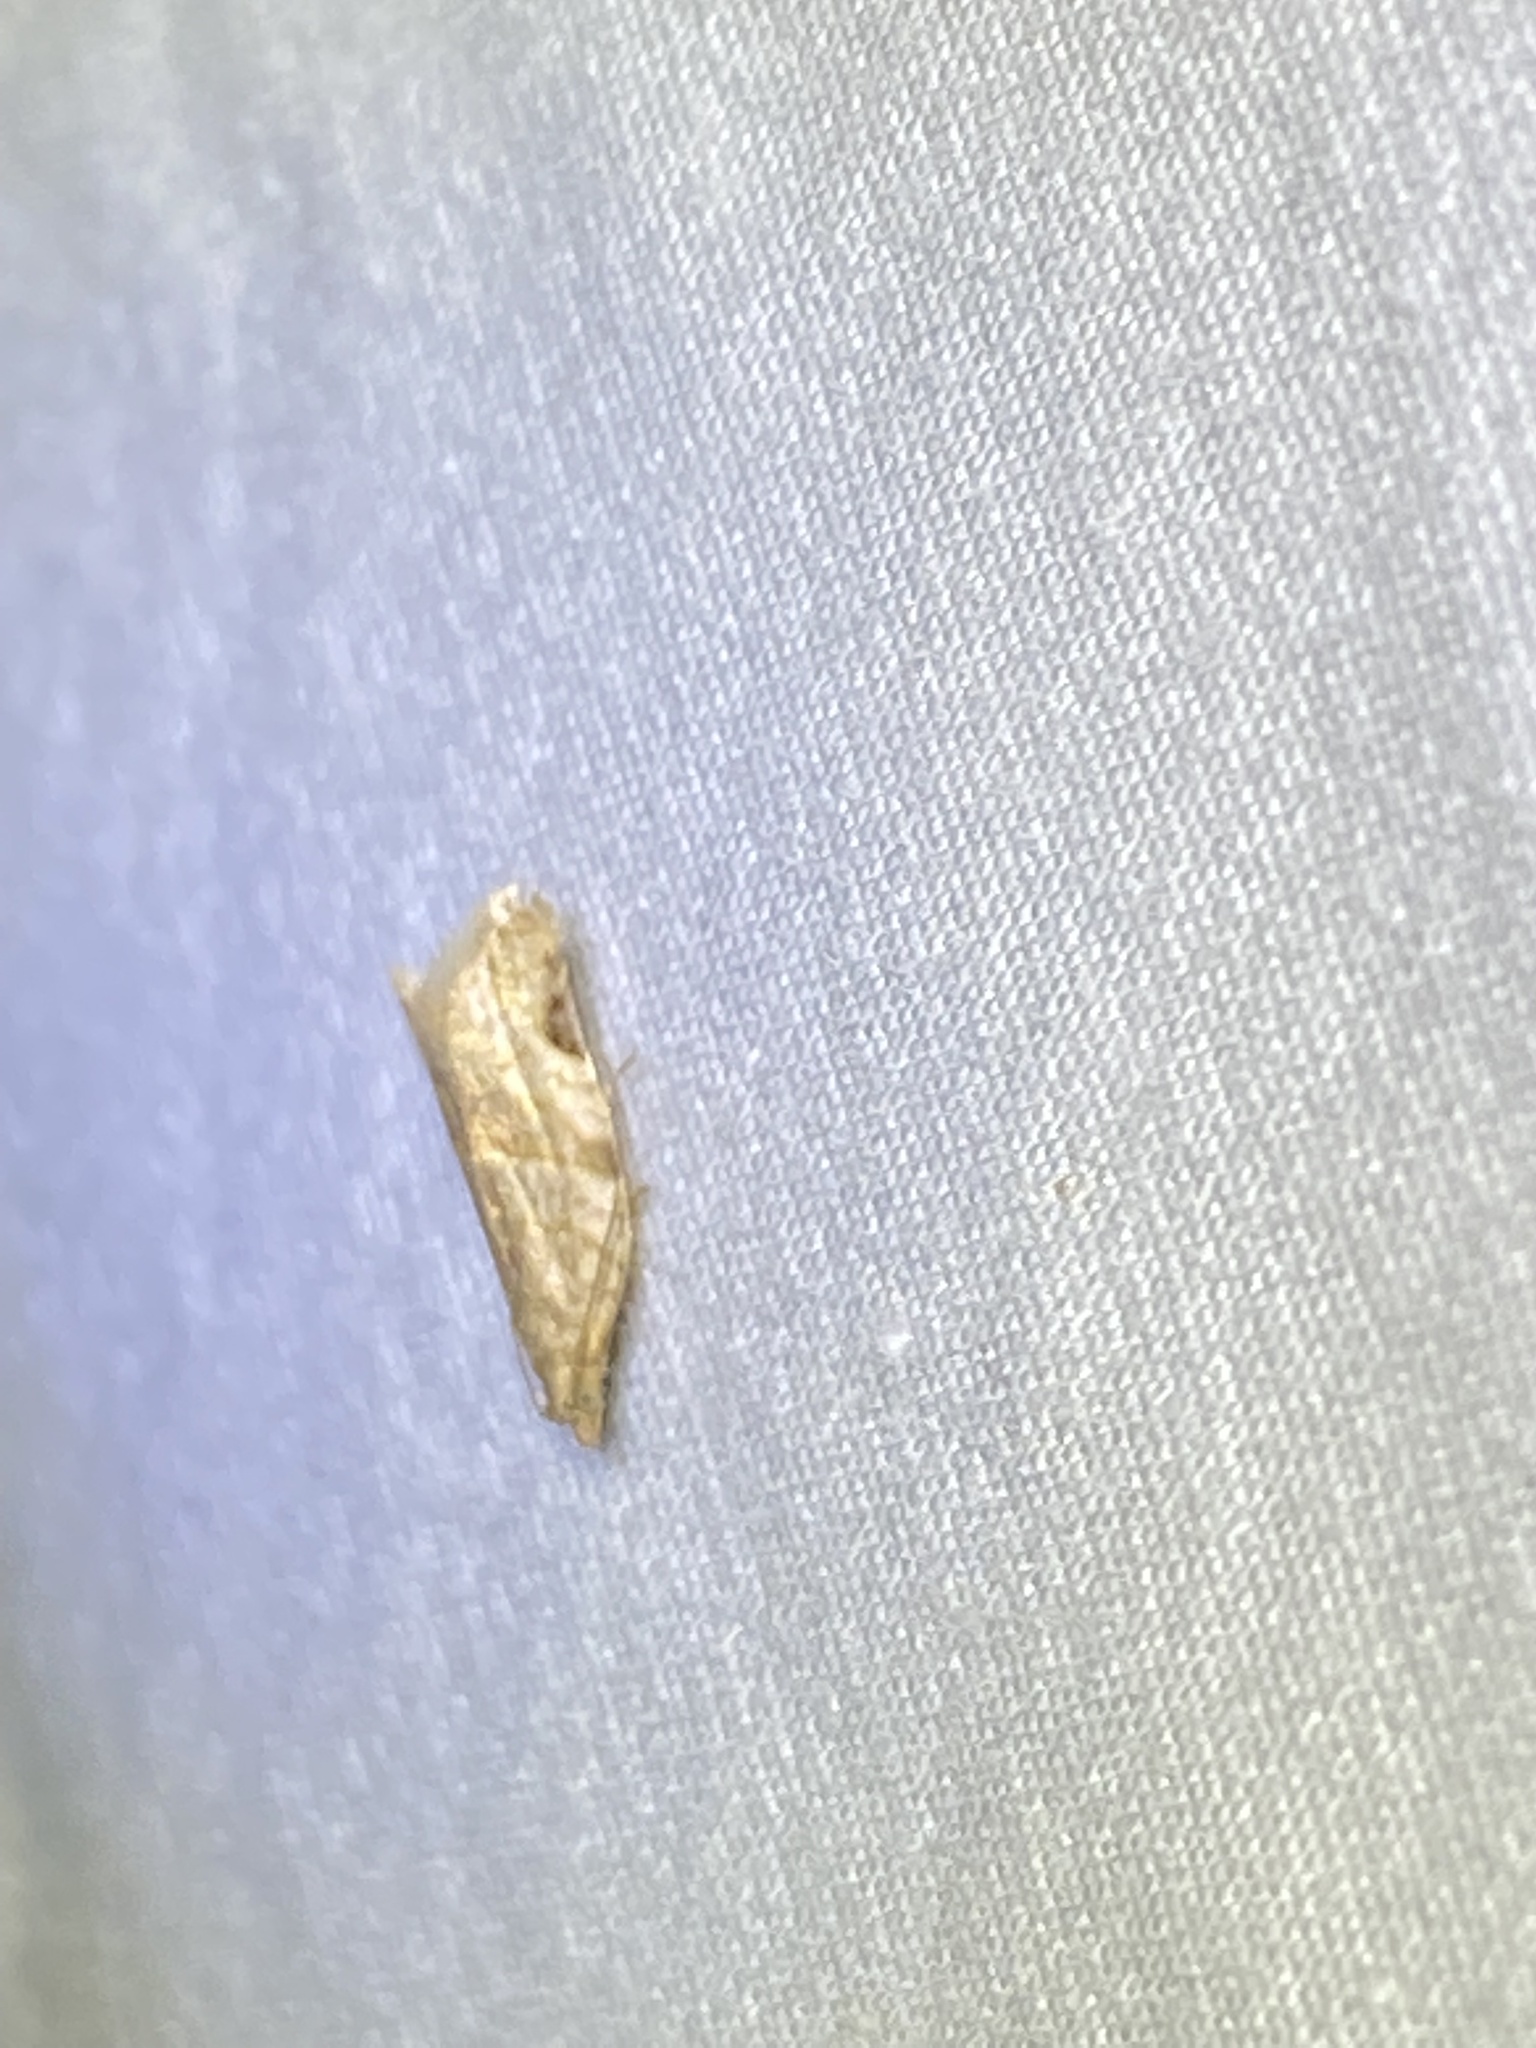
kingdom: Animalia
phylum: Arthropoda
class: Insecta
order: Lepidoptera
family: Tortricidae
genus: Clepsis
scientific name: Clepsis virescana
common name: Greenish apple moth
